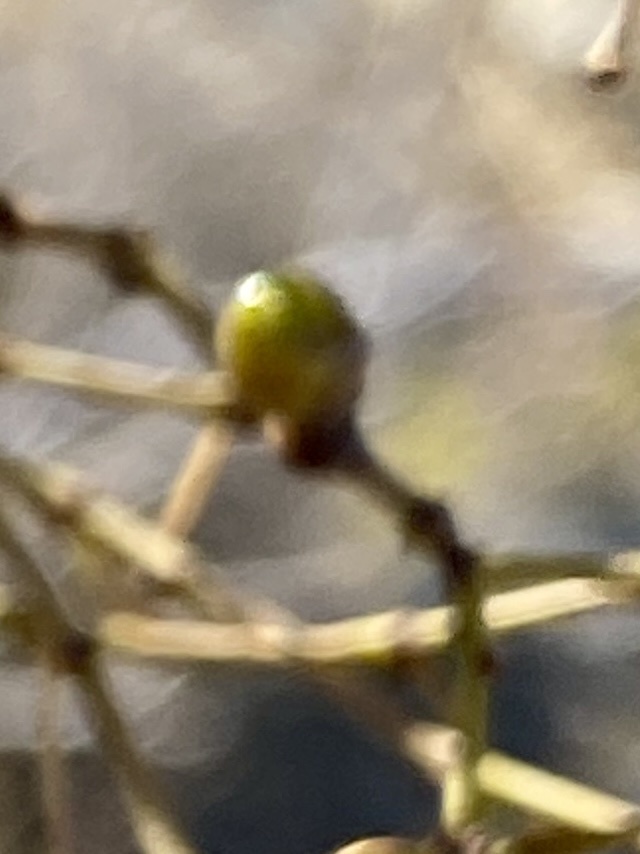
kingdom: Animalia
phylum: Arthropoda
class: Insecta
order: Diptera
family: Cecidomyiidae
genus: Asphondylia
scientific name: Asphondylia resinosa
